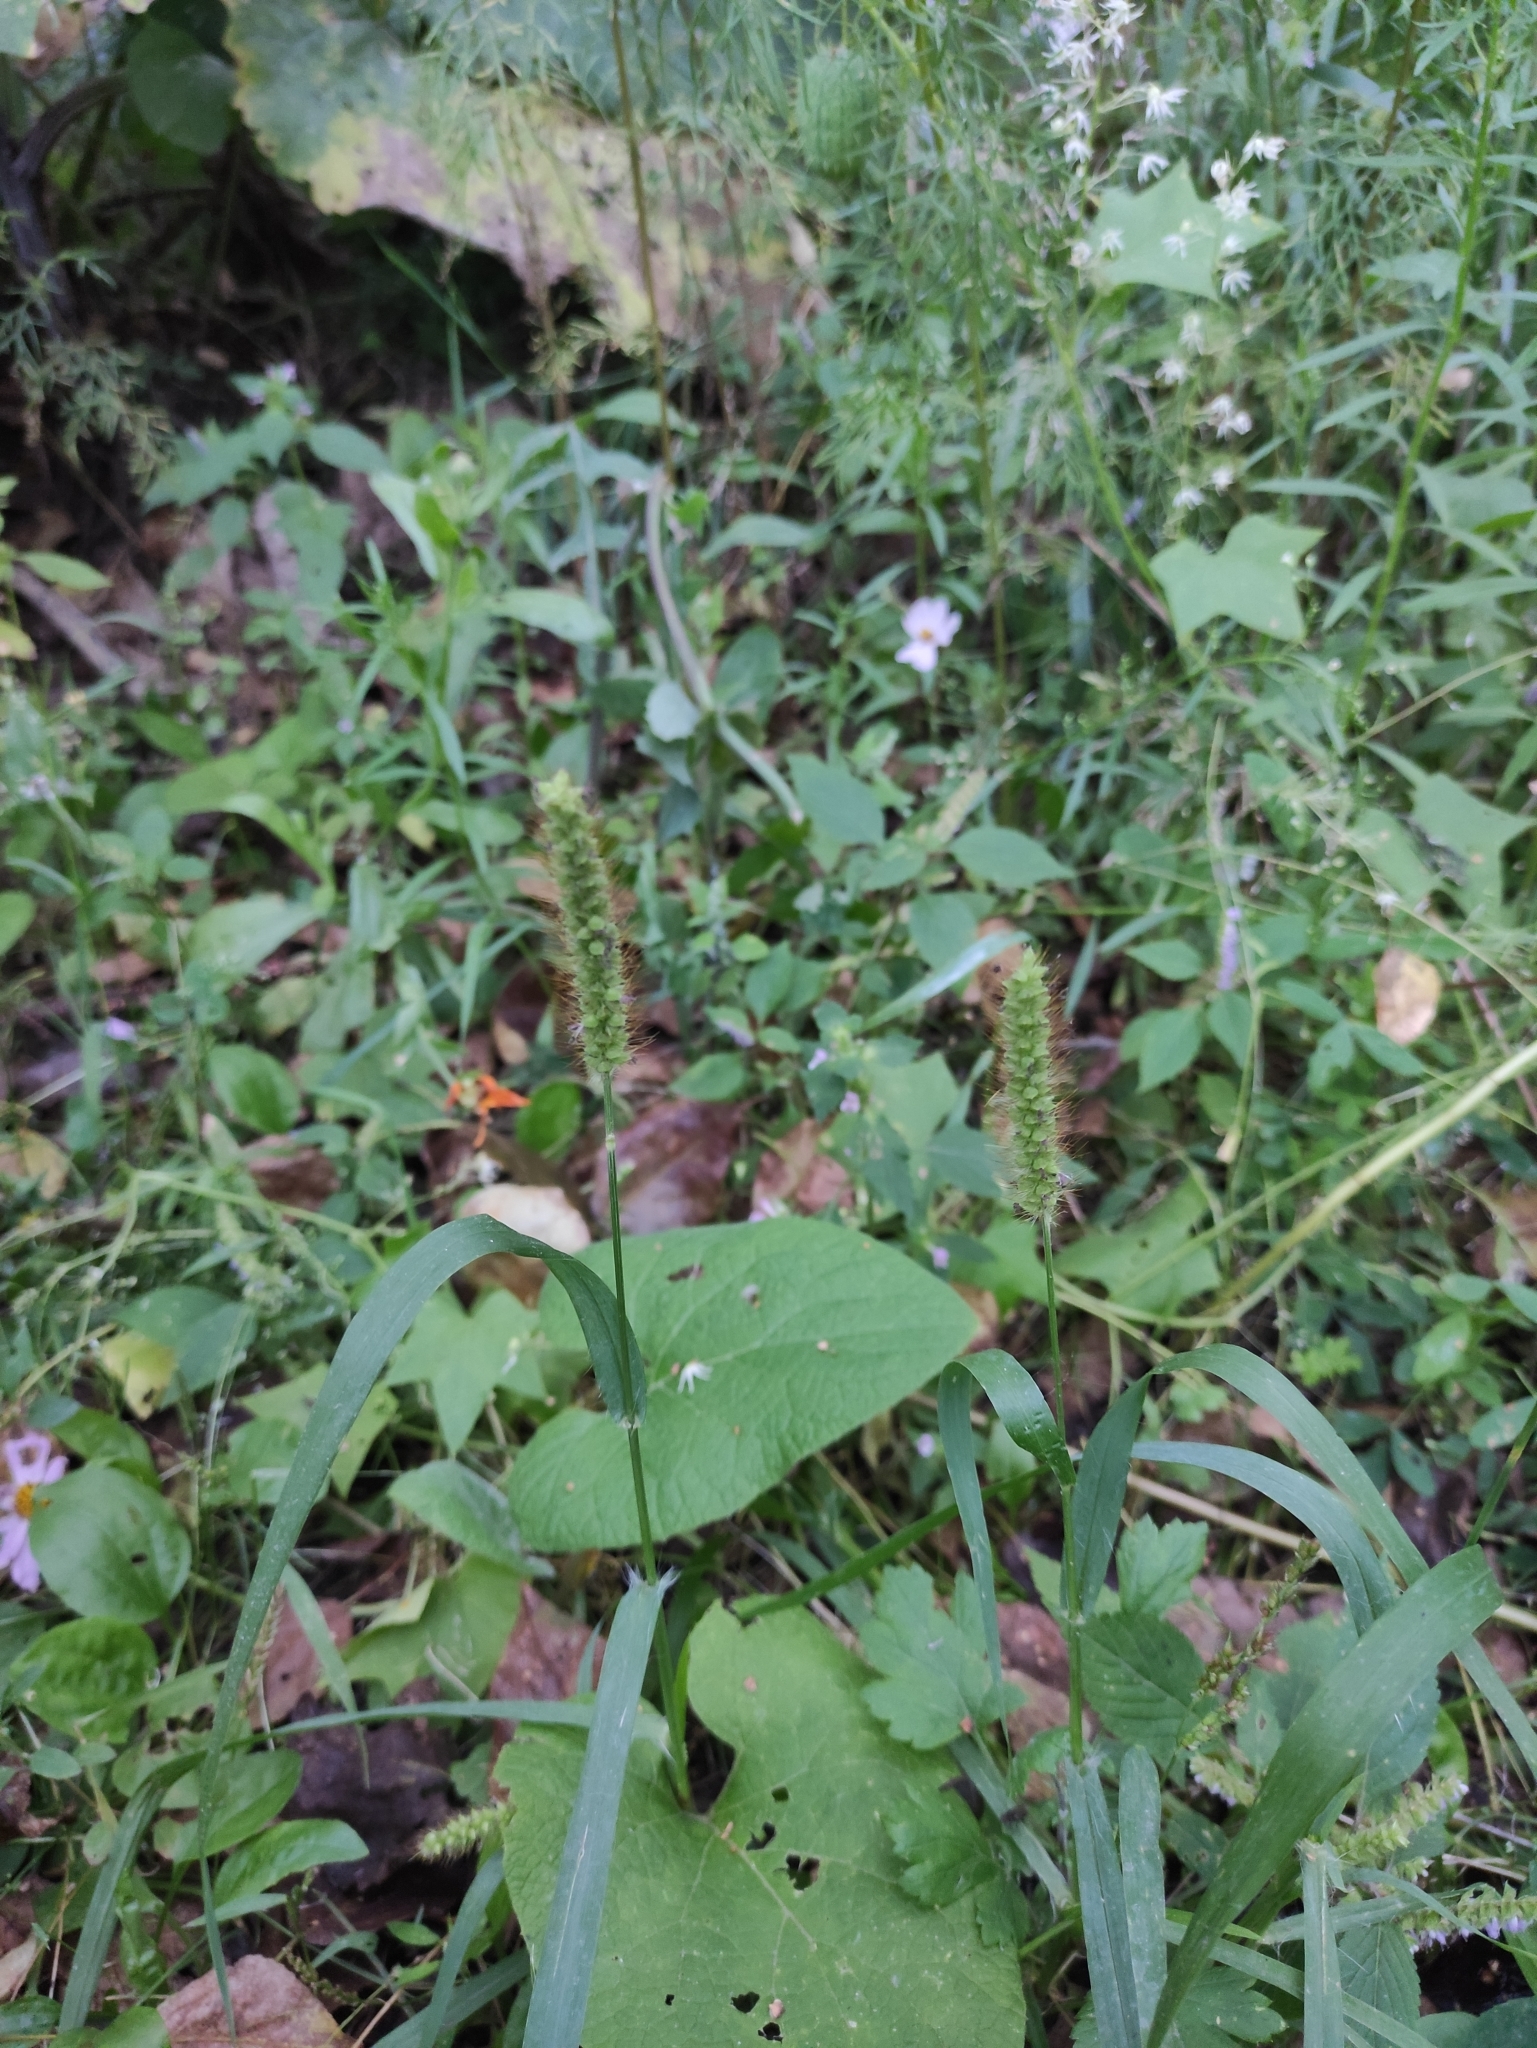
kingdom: Plantae
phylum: Tracheophyta
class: Liliopsida
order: Poales
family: Poaceae
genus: Setaria
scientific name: Setaria pumila
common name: Yellow bristle-grass
